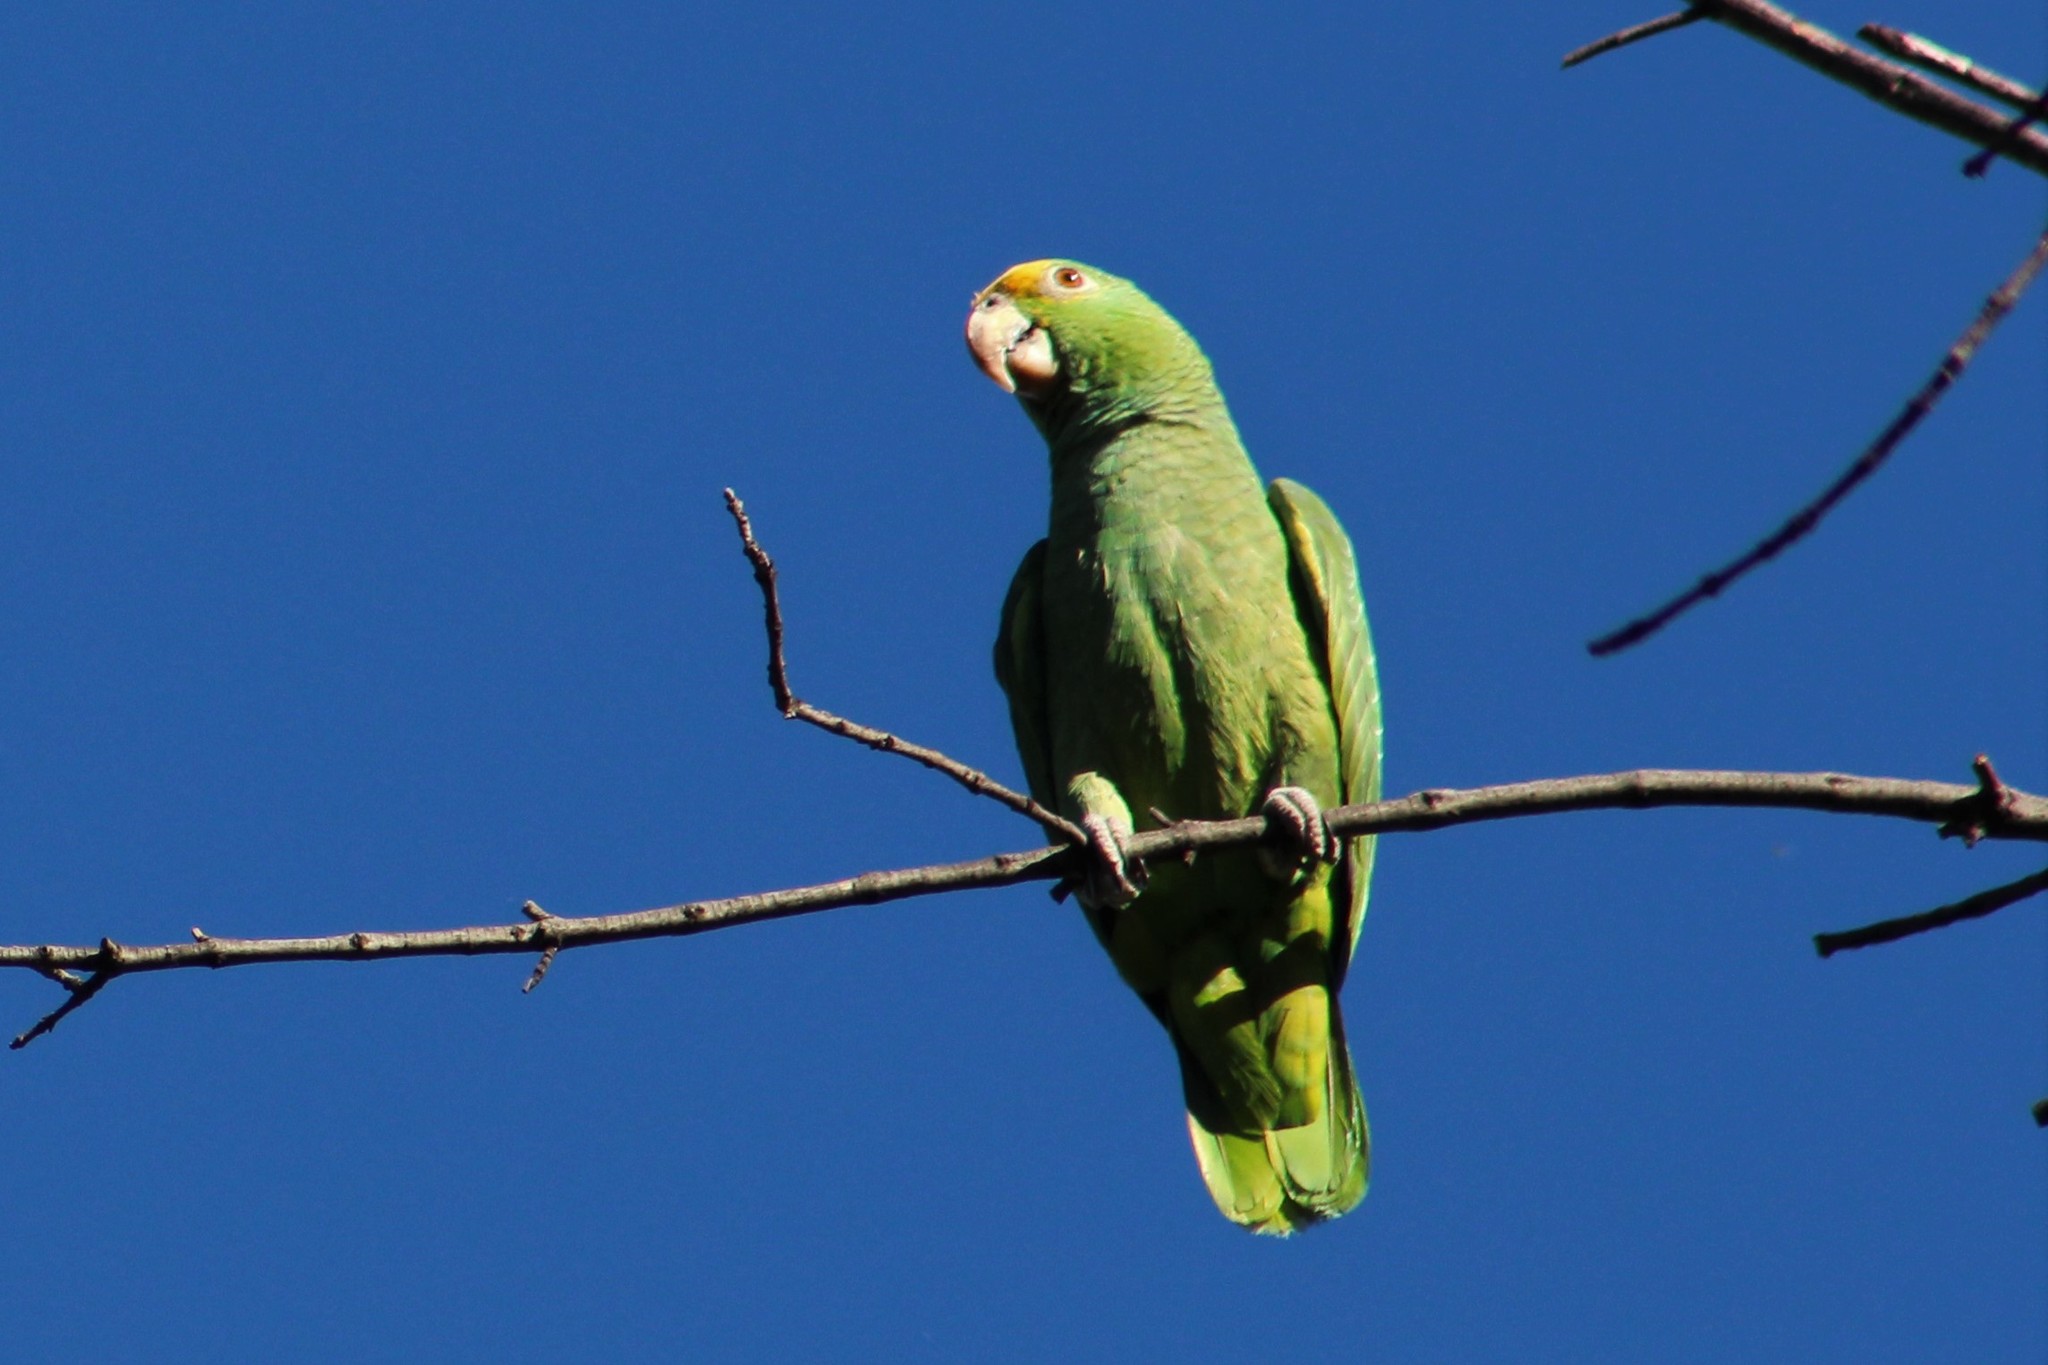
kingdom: Animalia
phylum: Chordata
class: Aves
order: Psittaciformes
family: Psittacidae
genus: Amazona
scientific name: Amazona oratrix
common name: Yellow-headed amazon
